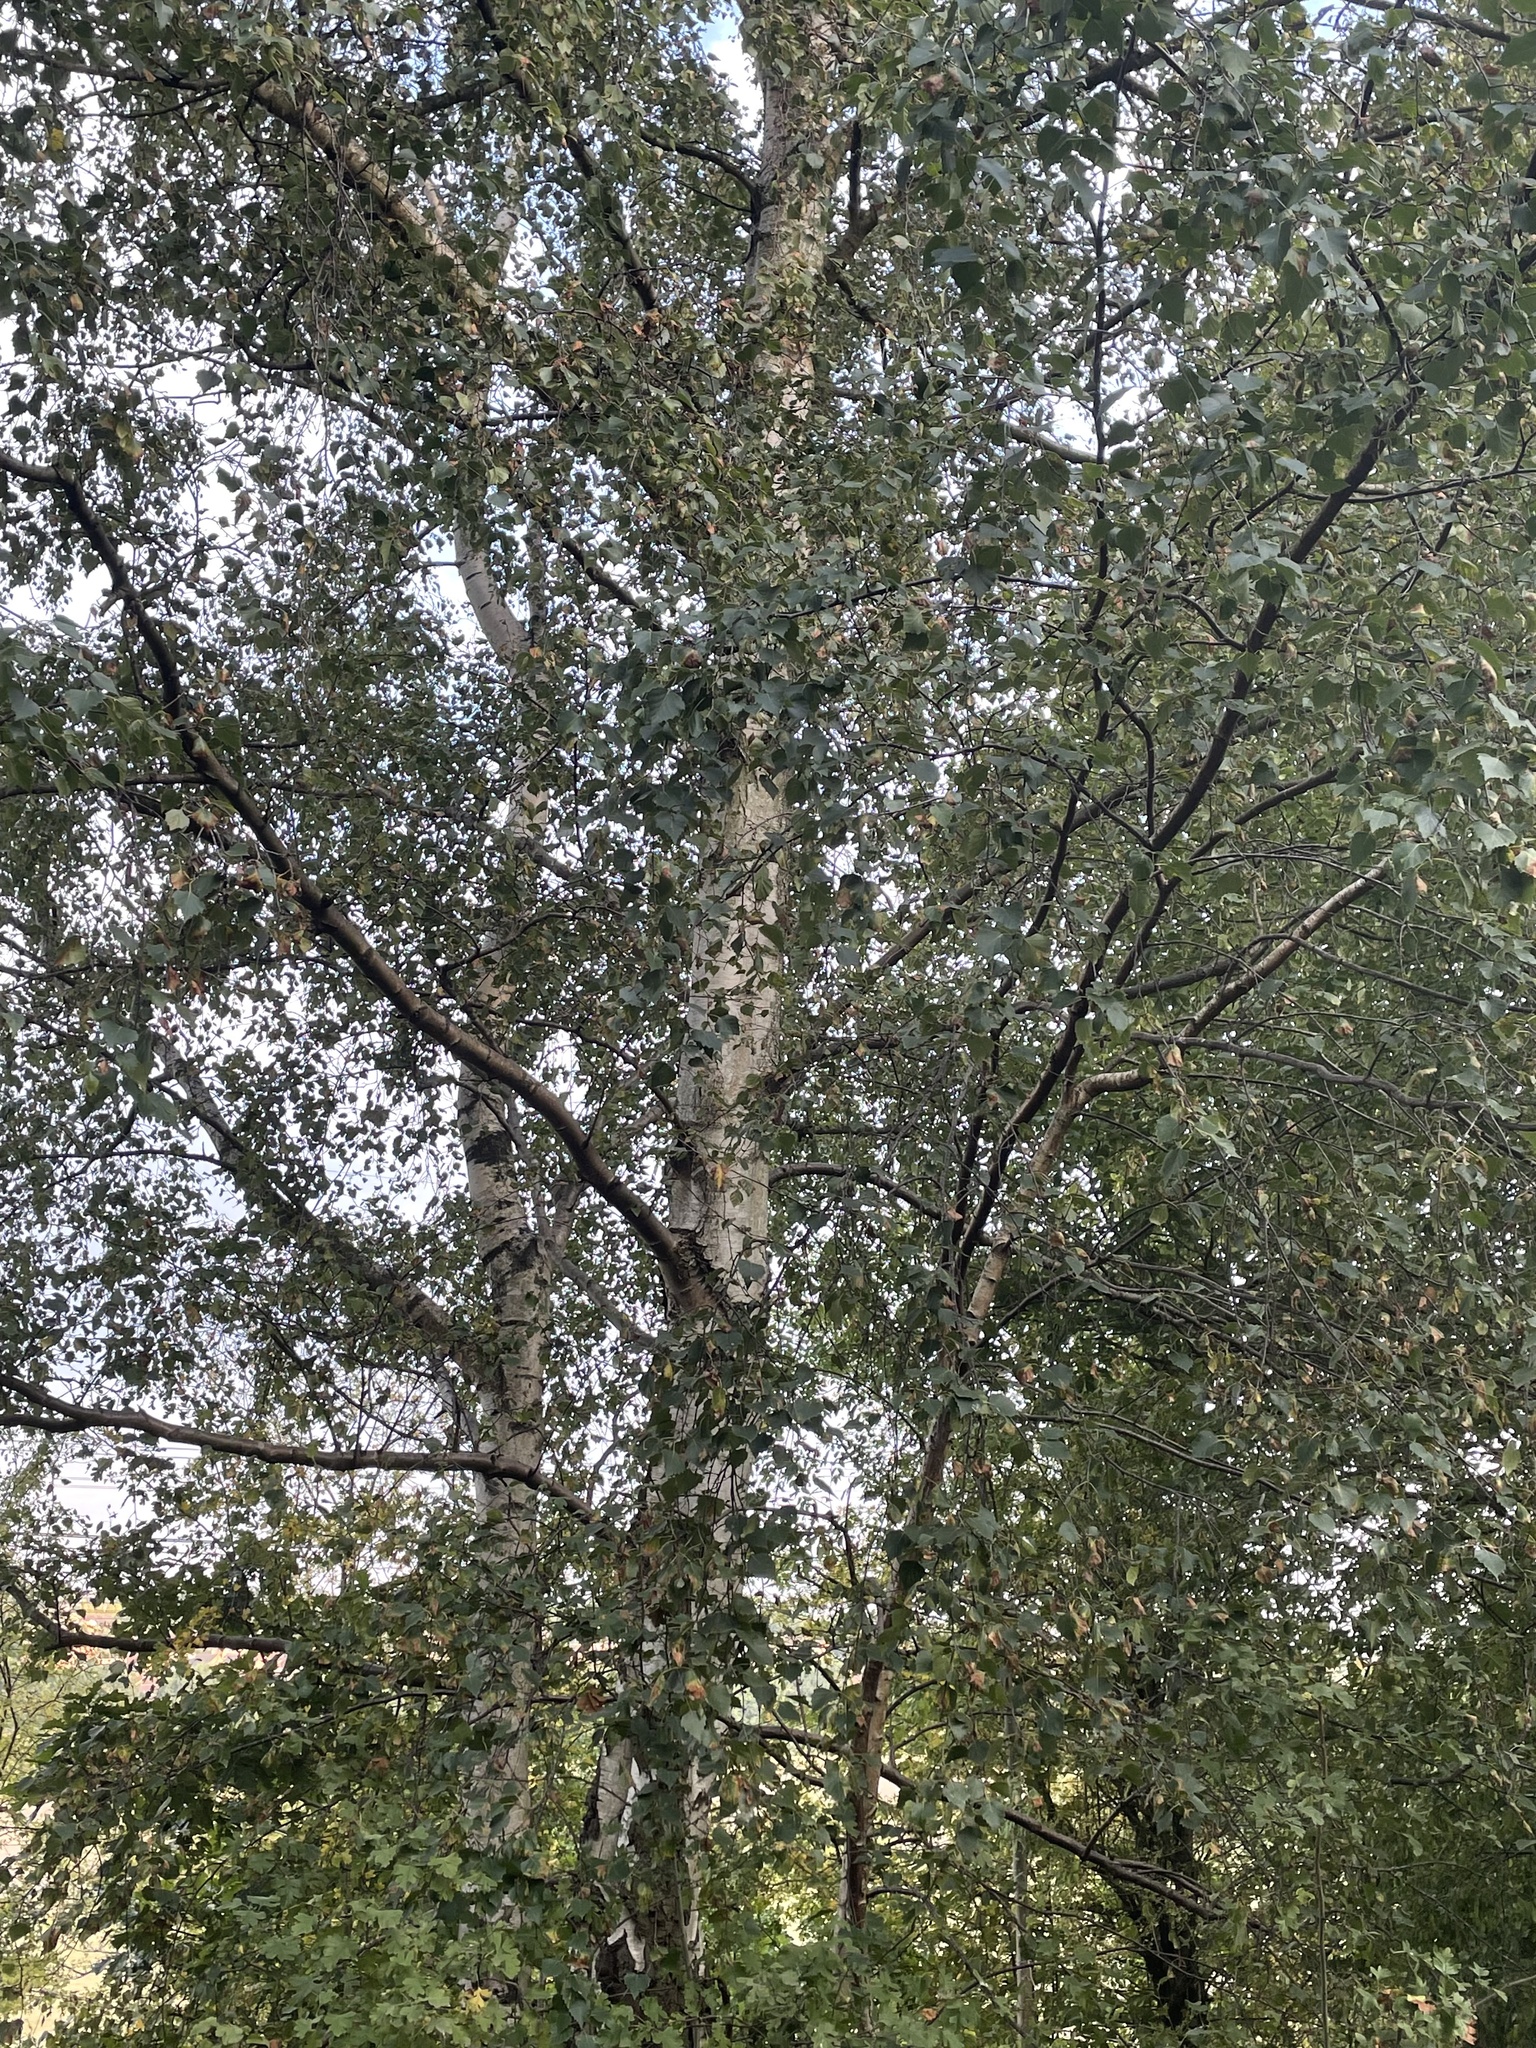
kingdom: Plantae
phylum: Tracheophyta
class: Magnoliopsida
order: Fagales
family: Betulaceae
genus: Betula
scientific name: Betula pendula
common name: Silver birch
